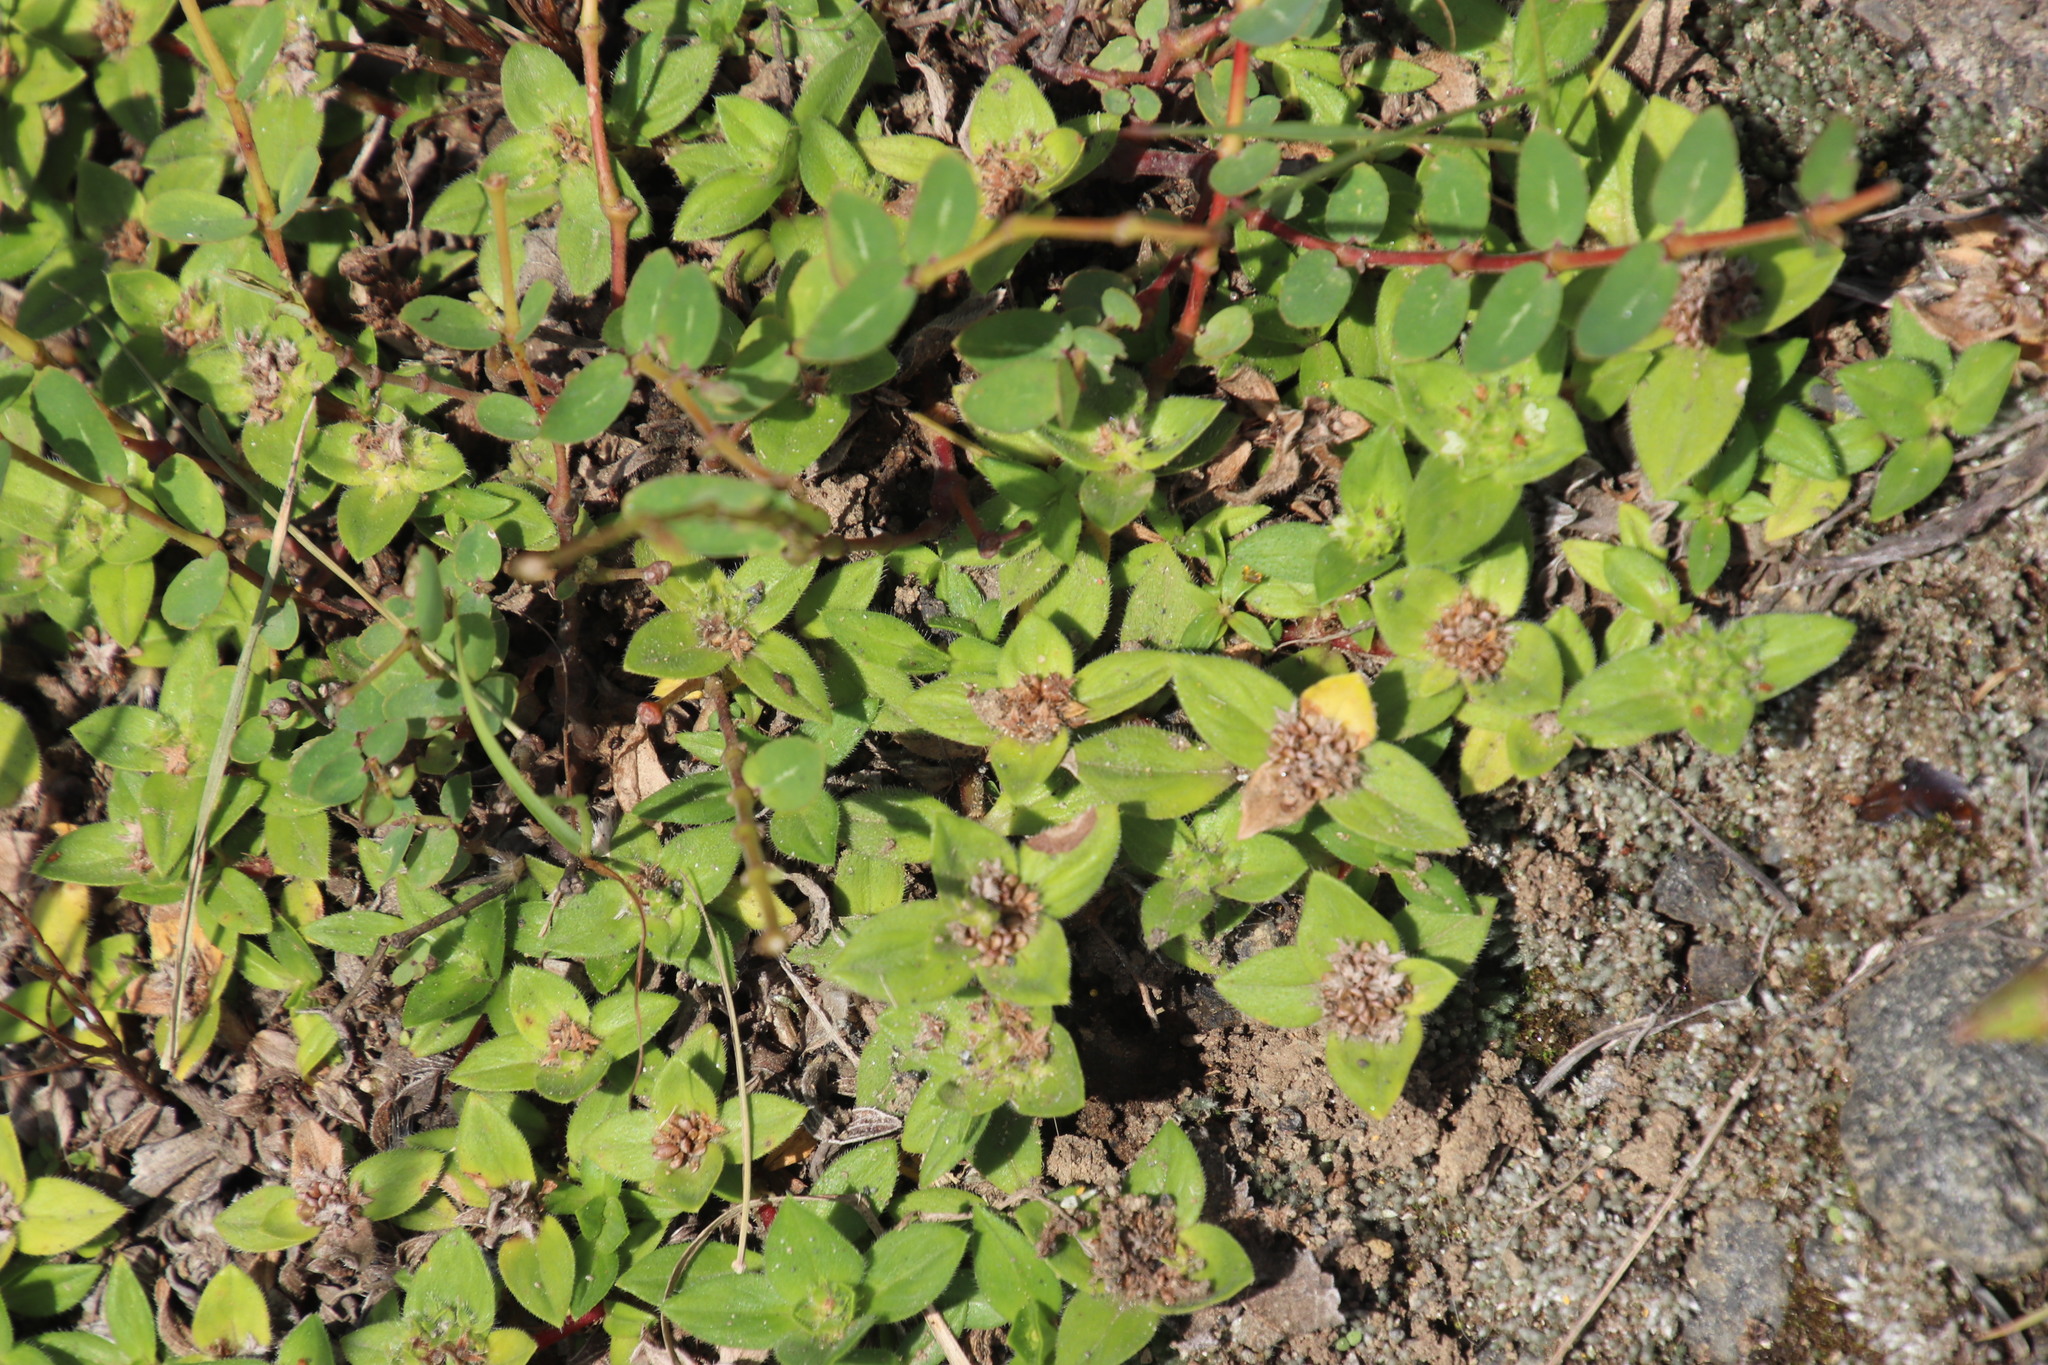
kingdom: Plantae
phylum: Tracheophyta
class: Magnoliopsida
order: Gentianales
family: Rubiaceae
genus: Richardia
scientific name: Richardia brasiliensis
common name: Tropical mexican clover
